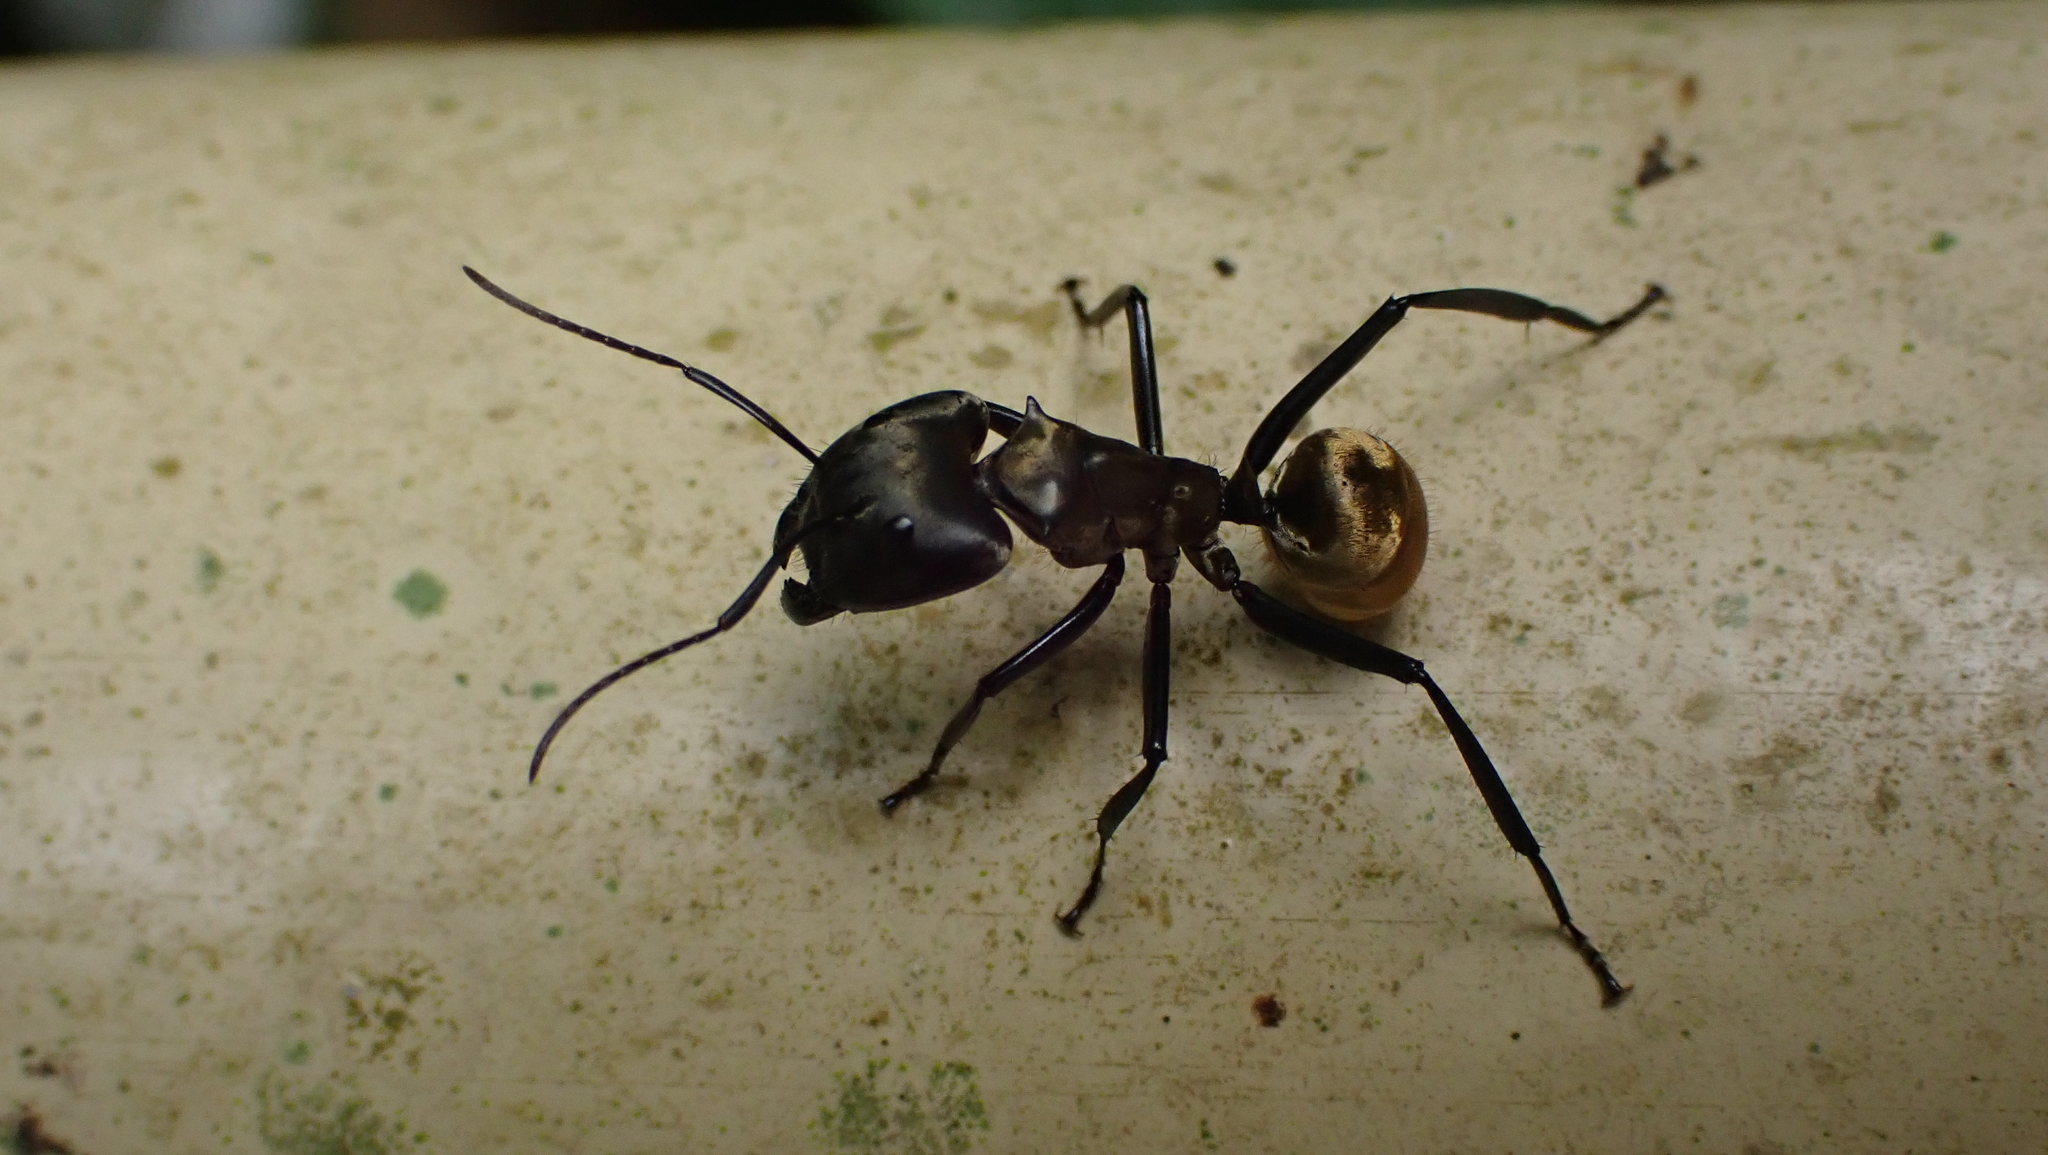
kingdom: Animalia
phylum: Arthropoda
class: Insecta
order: Hymenoptera
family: Formicidae
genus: Camponotus
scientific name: Camponotus sericeiventris
